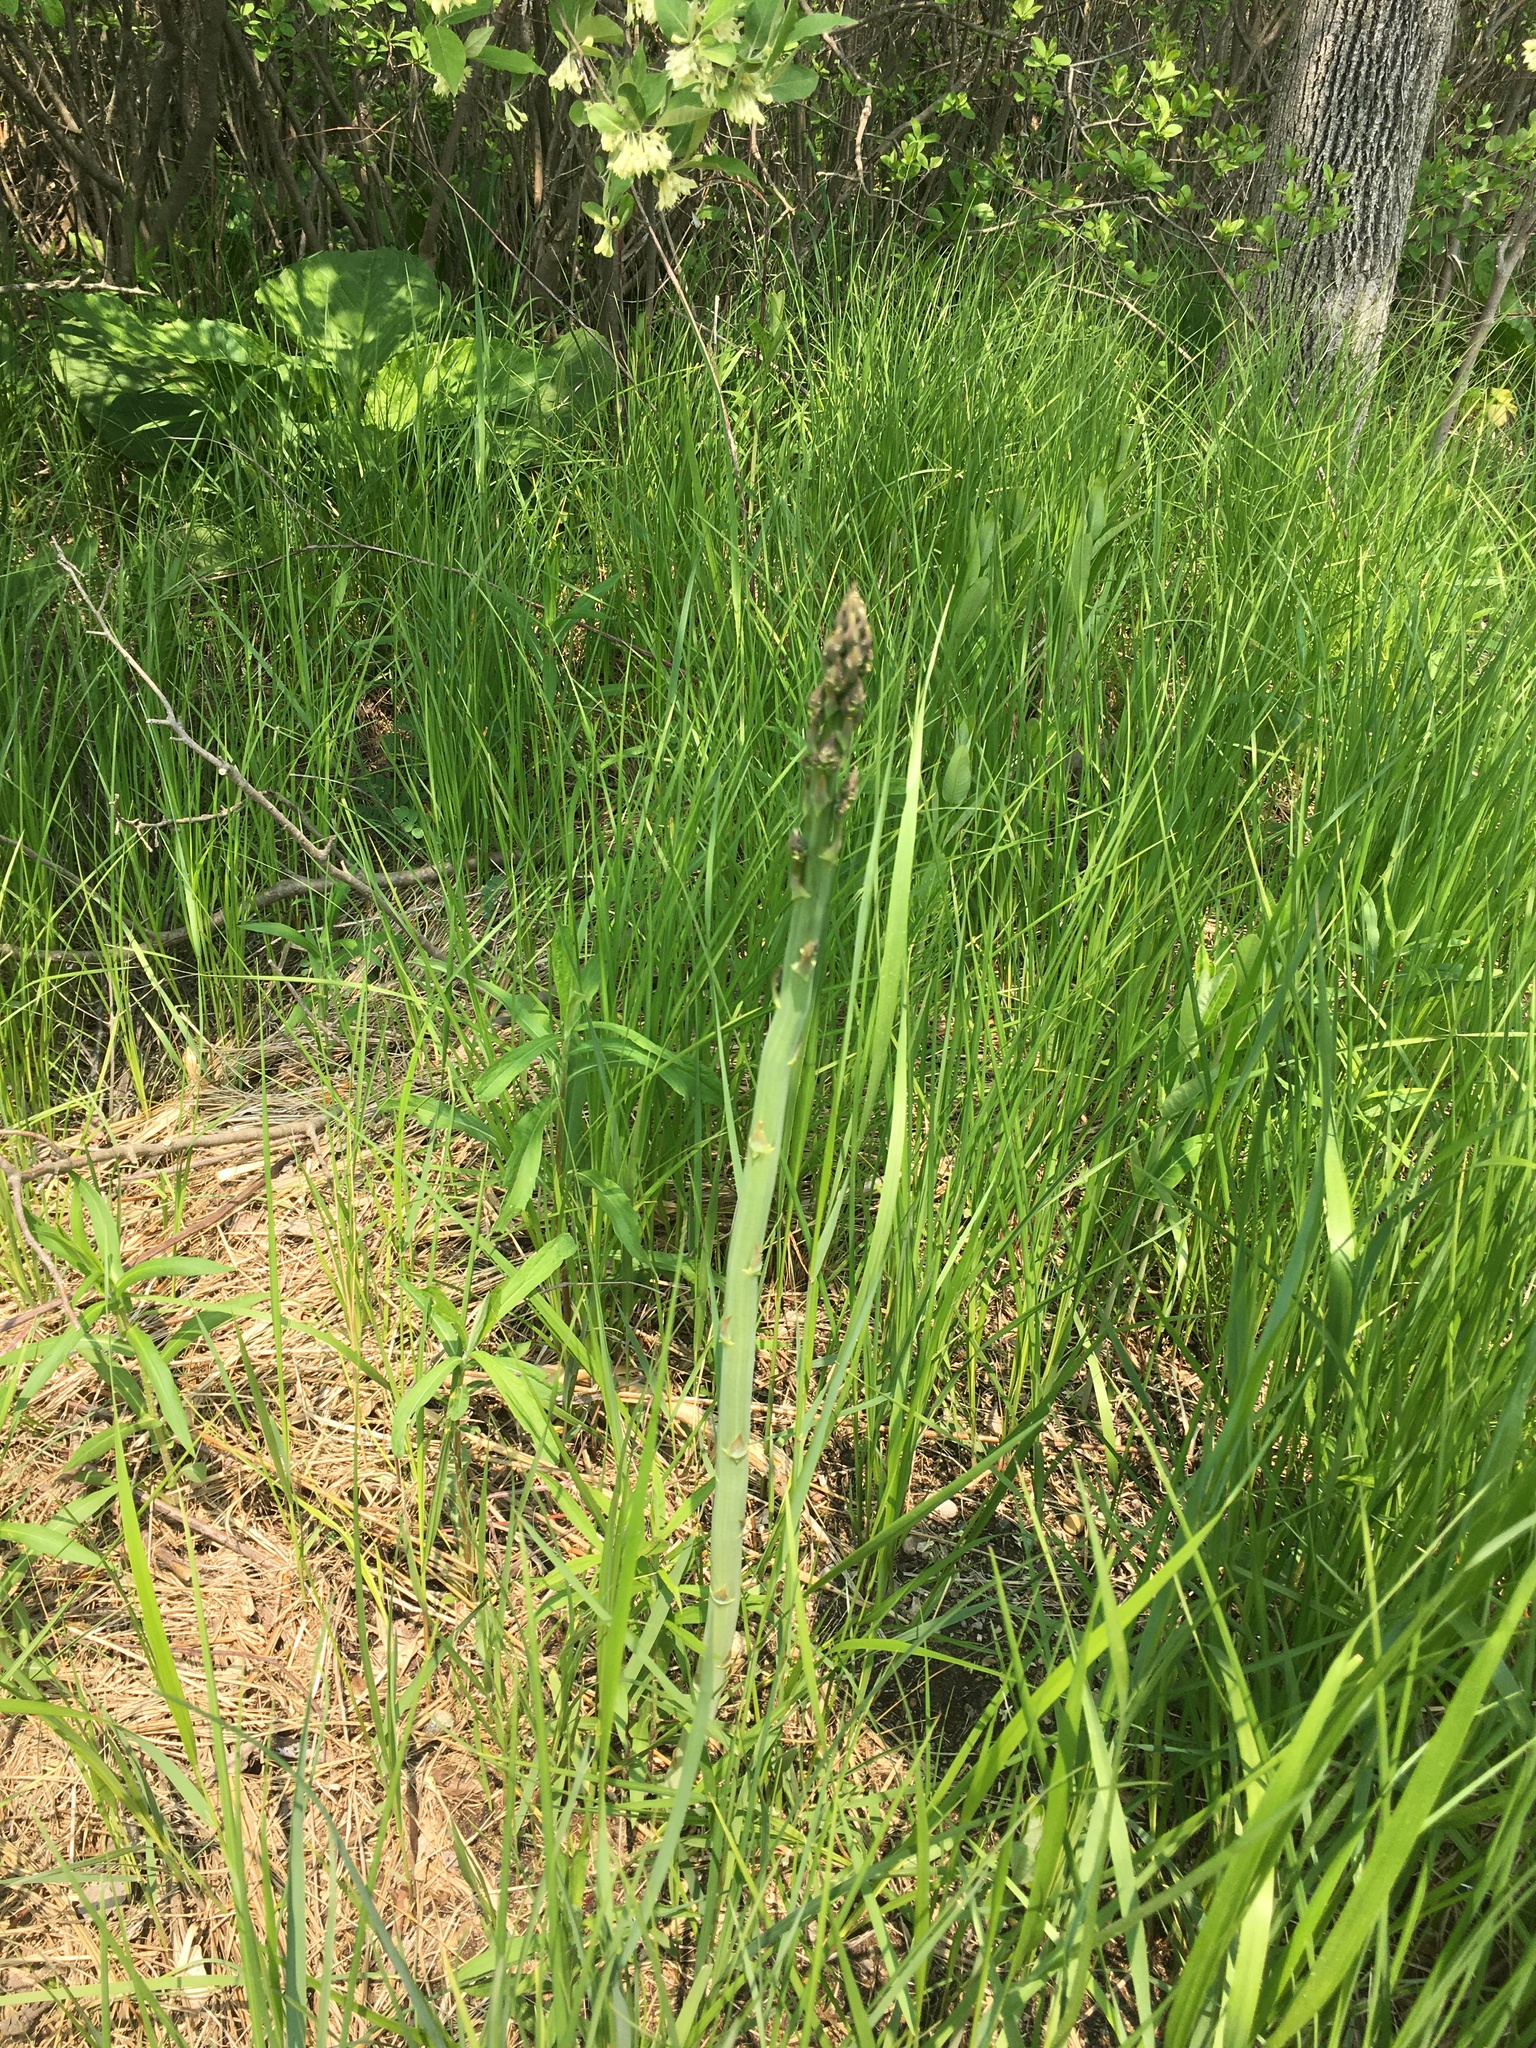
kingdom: Plantae
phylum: Tracheophyta
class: Liliopsida
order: Asparagales
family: Asparagaceae
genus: Asparagus
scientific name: Asparagus officinalis
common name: Garden asparagus
